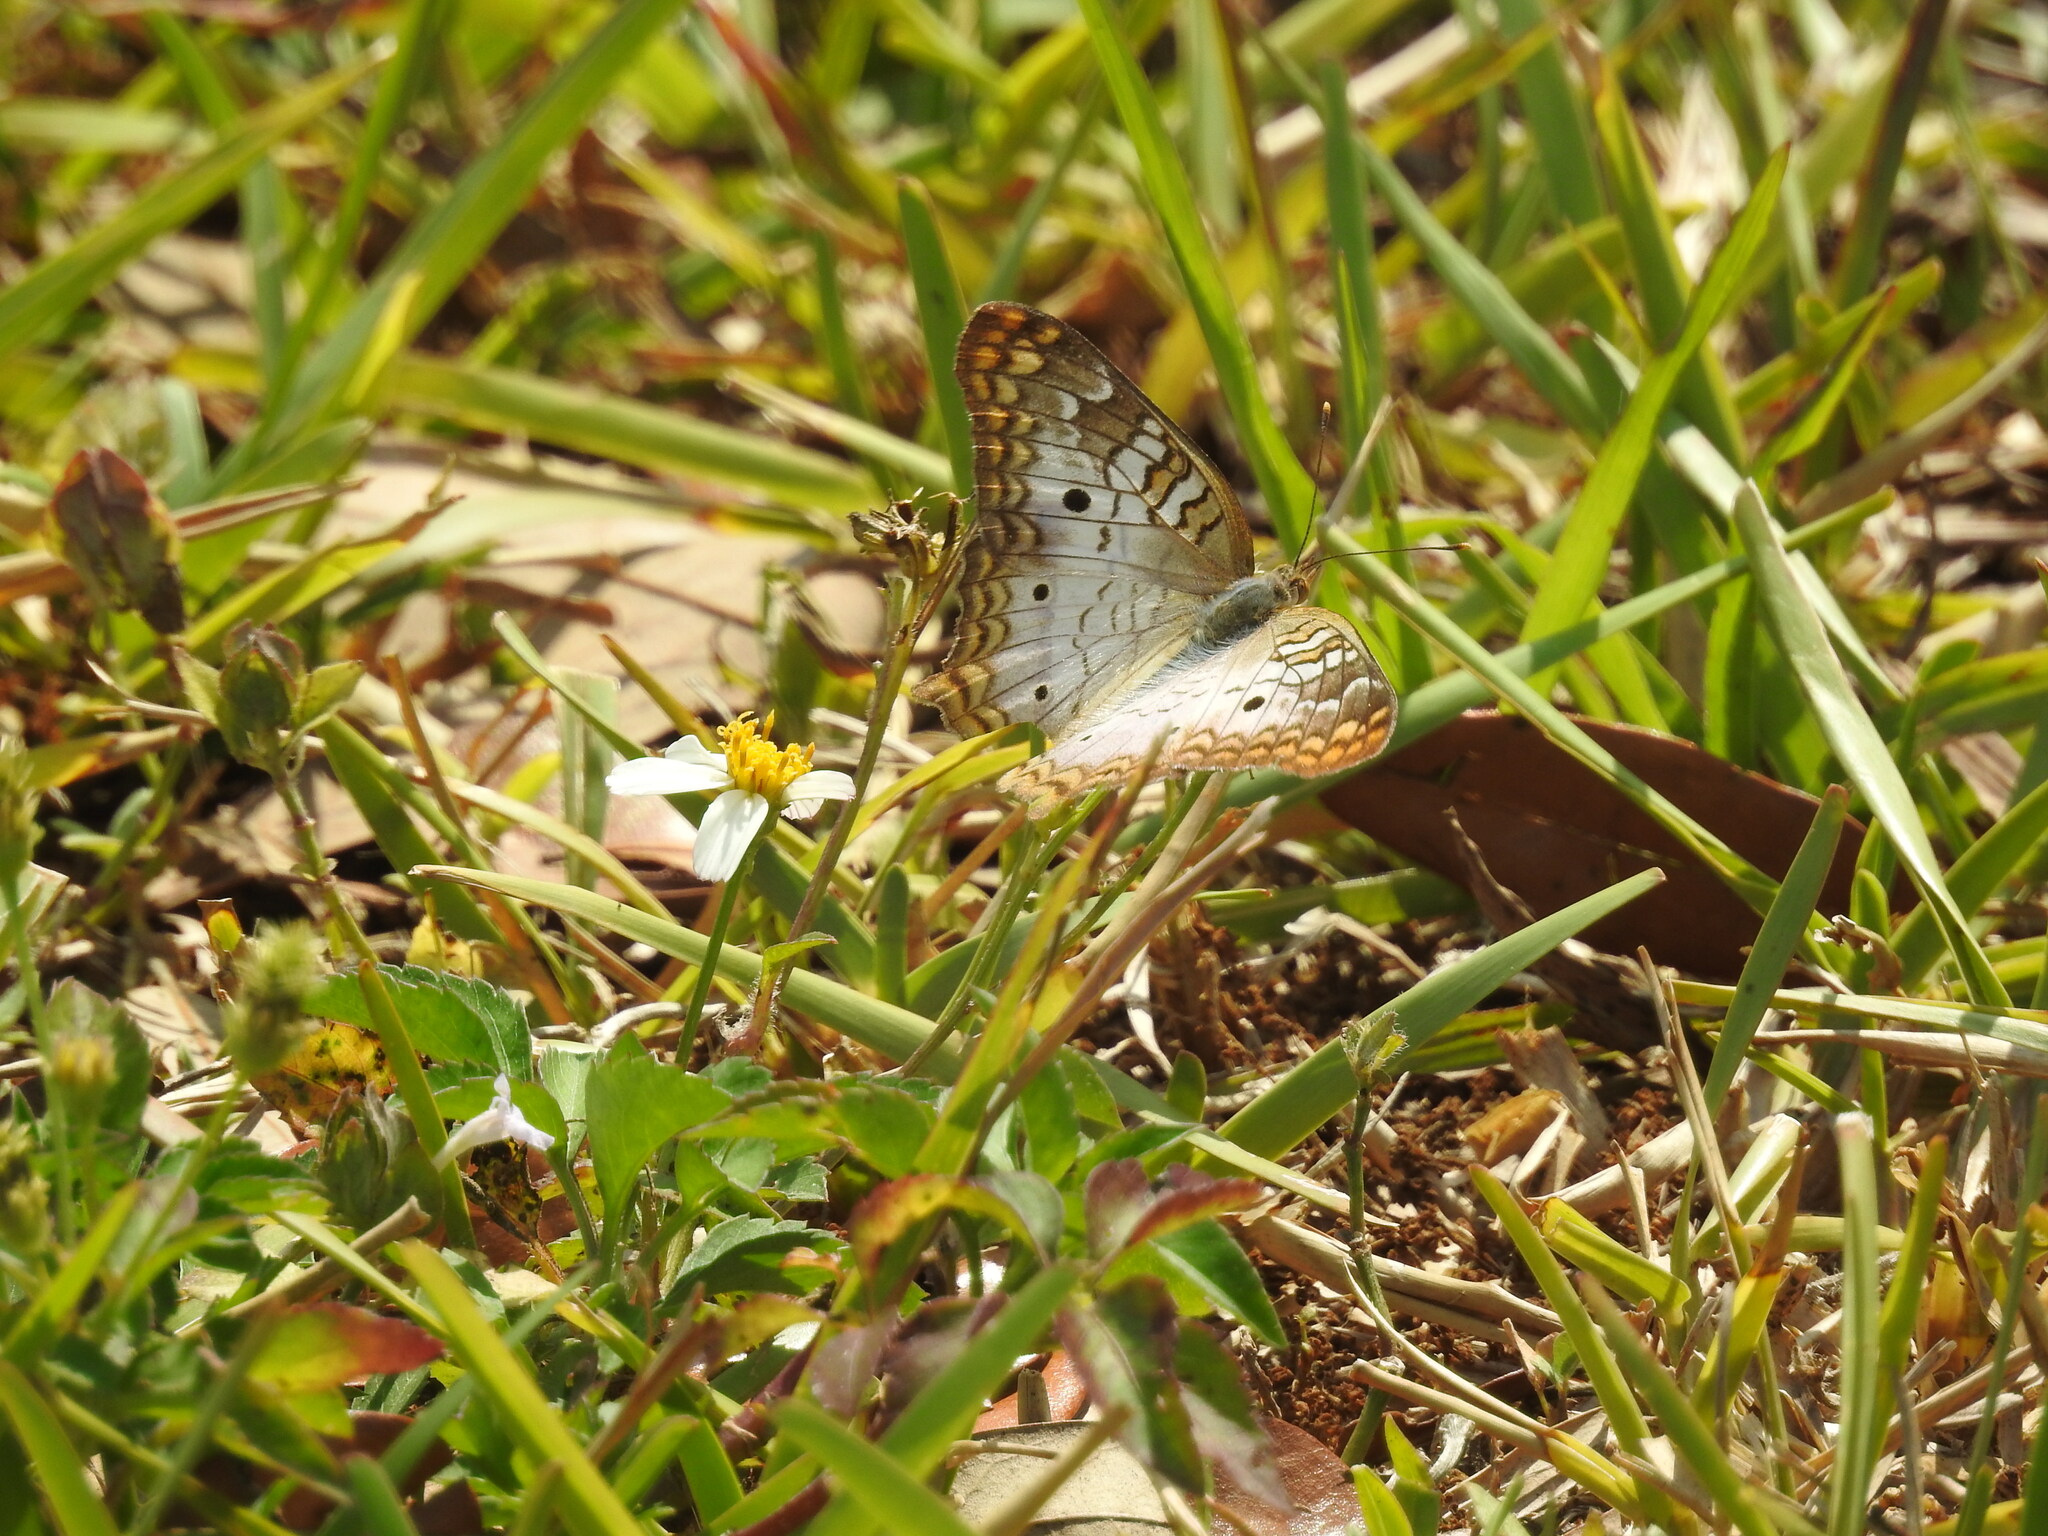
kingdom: Animalia
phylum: Arthropoda
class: Insecta
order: Lepidoptera
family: Nymphalidae
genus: Anartia
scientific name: Anartia jatrophae
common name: White peacock
